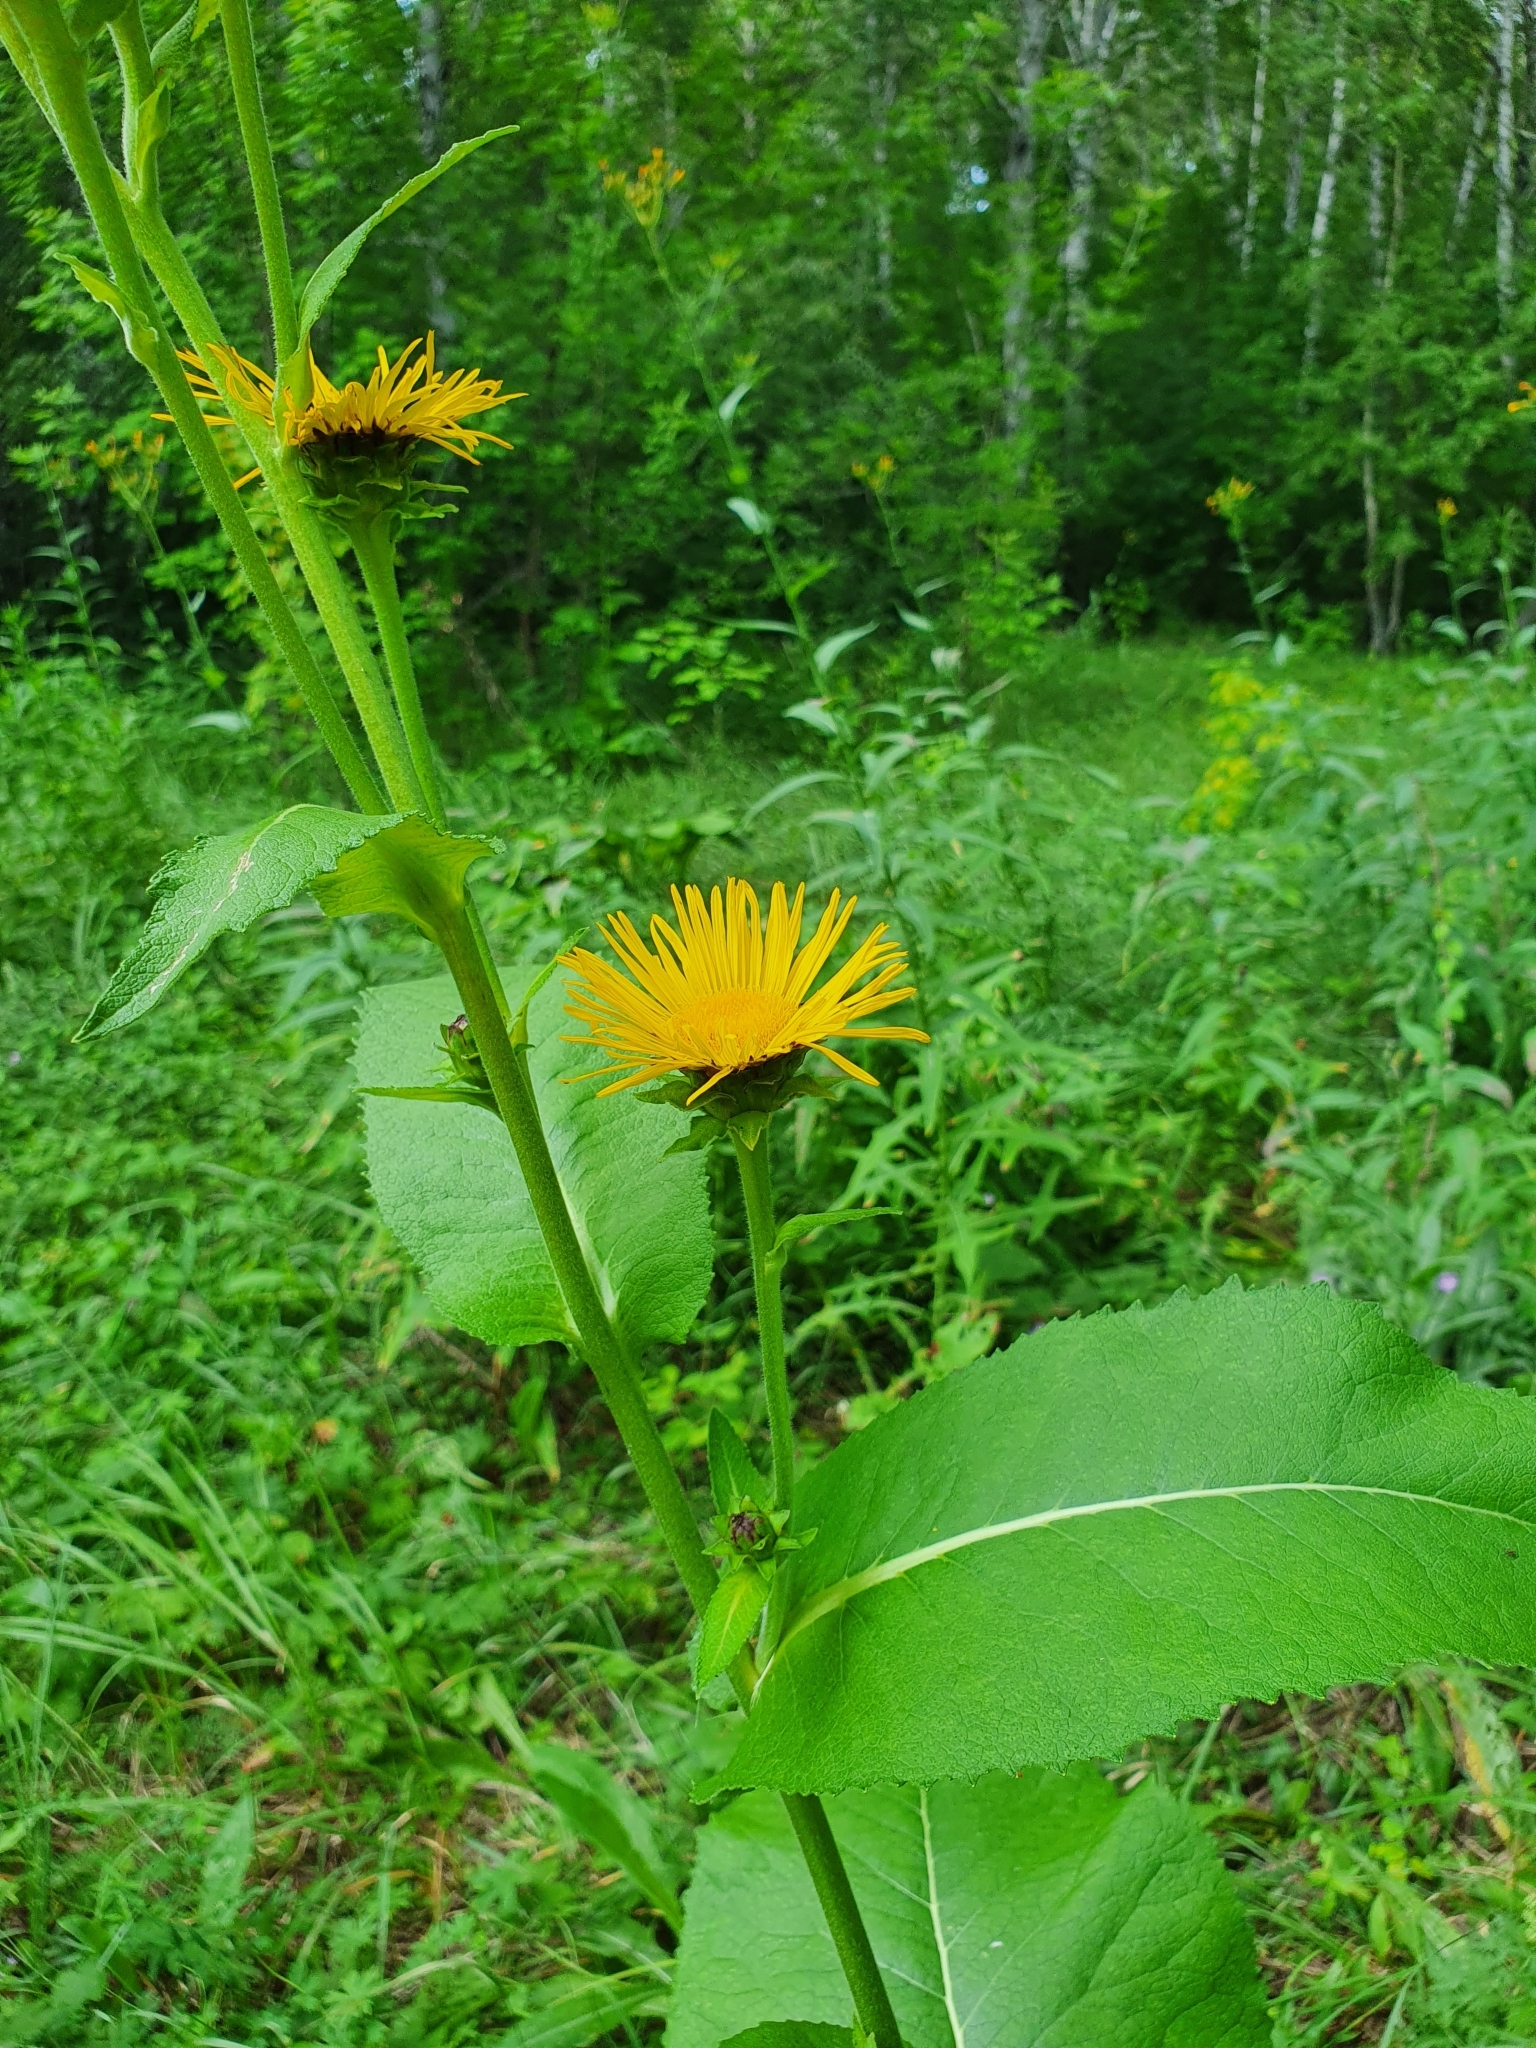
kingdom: Plantae
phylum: Tracheophyta
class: Magnoliopsida
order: Asterales
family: Asteraceae
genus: Inula
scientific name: Inula helenium
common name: Elecampane
